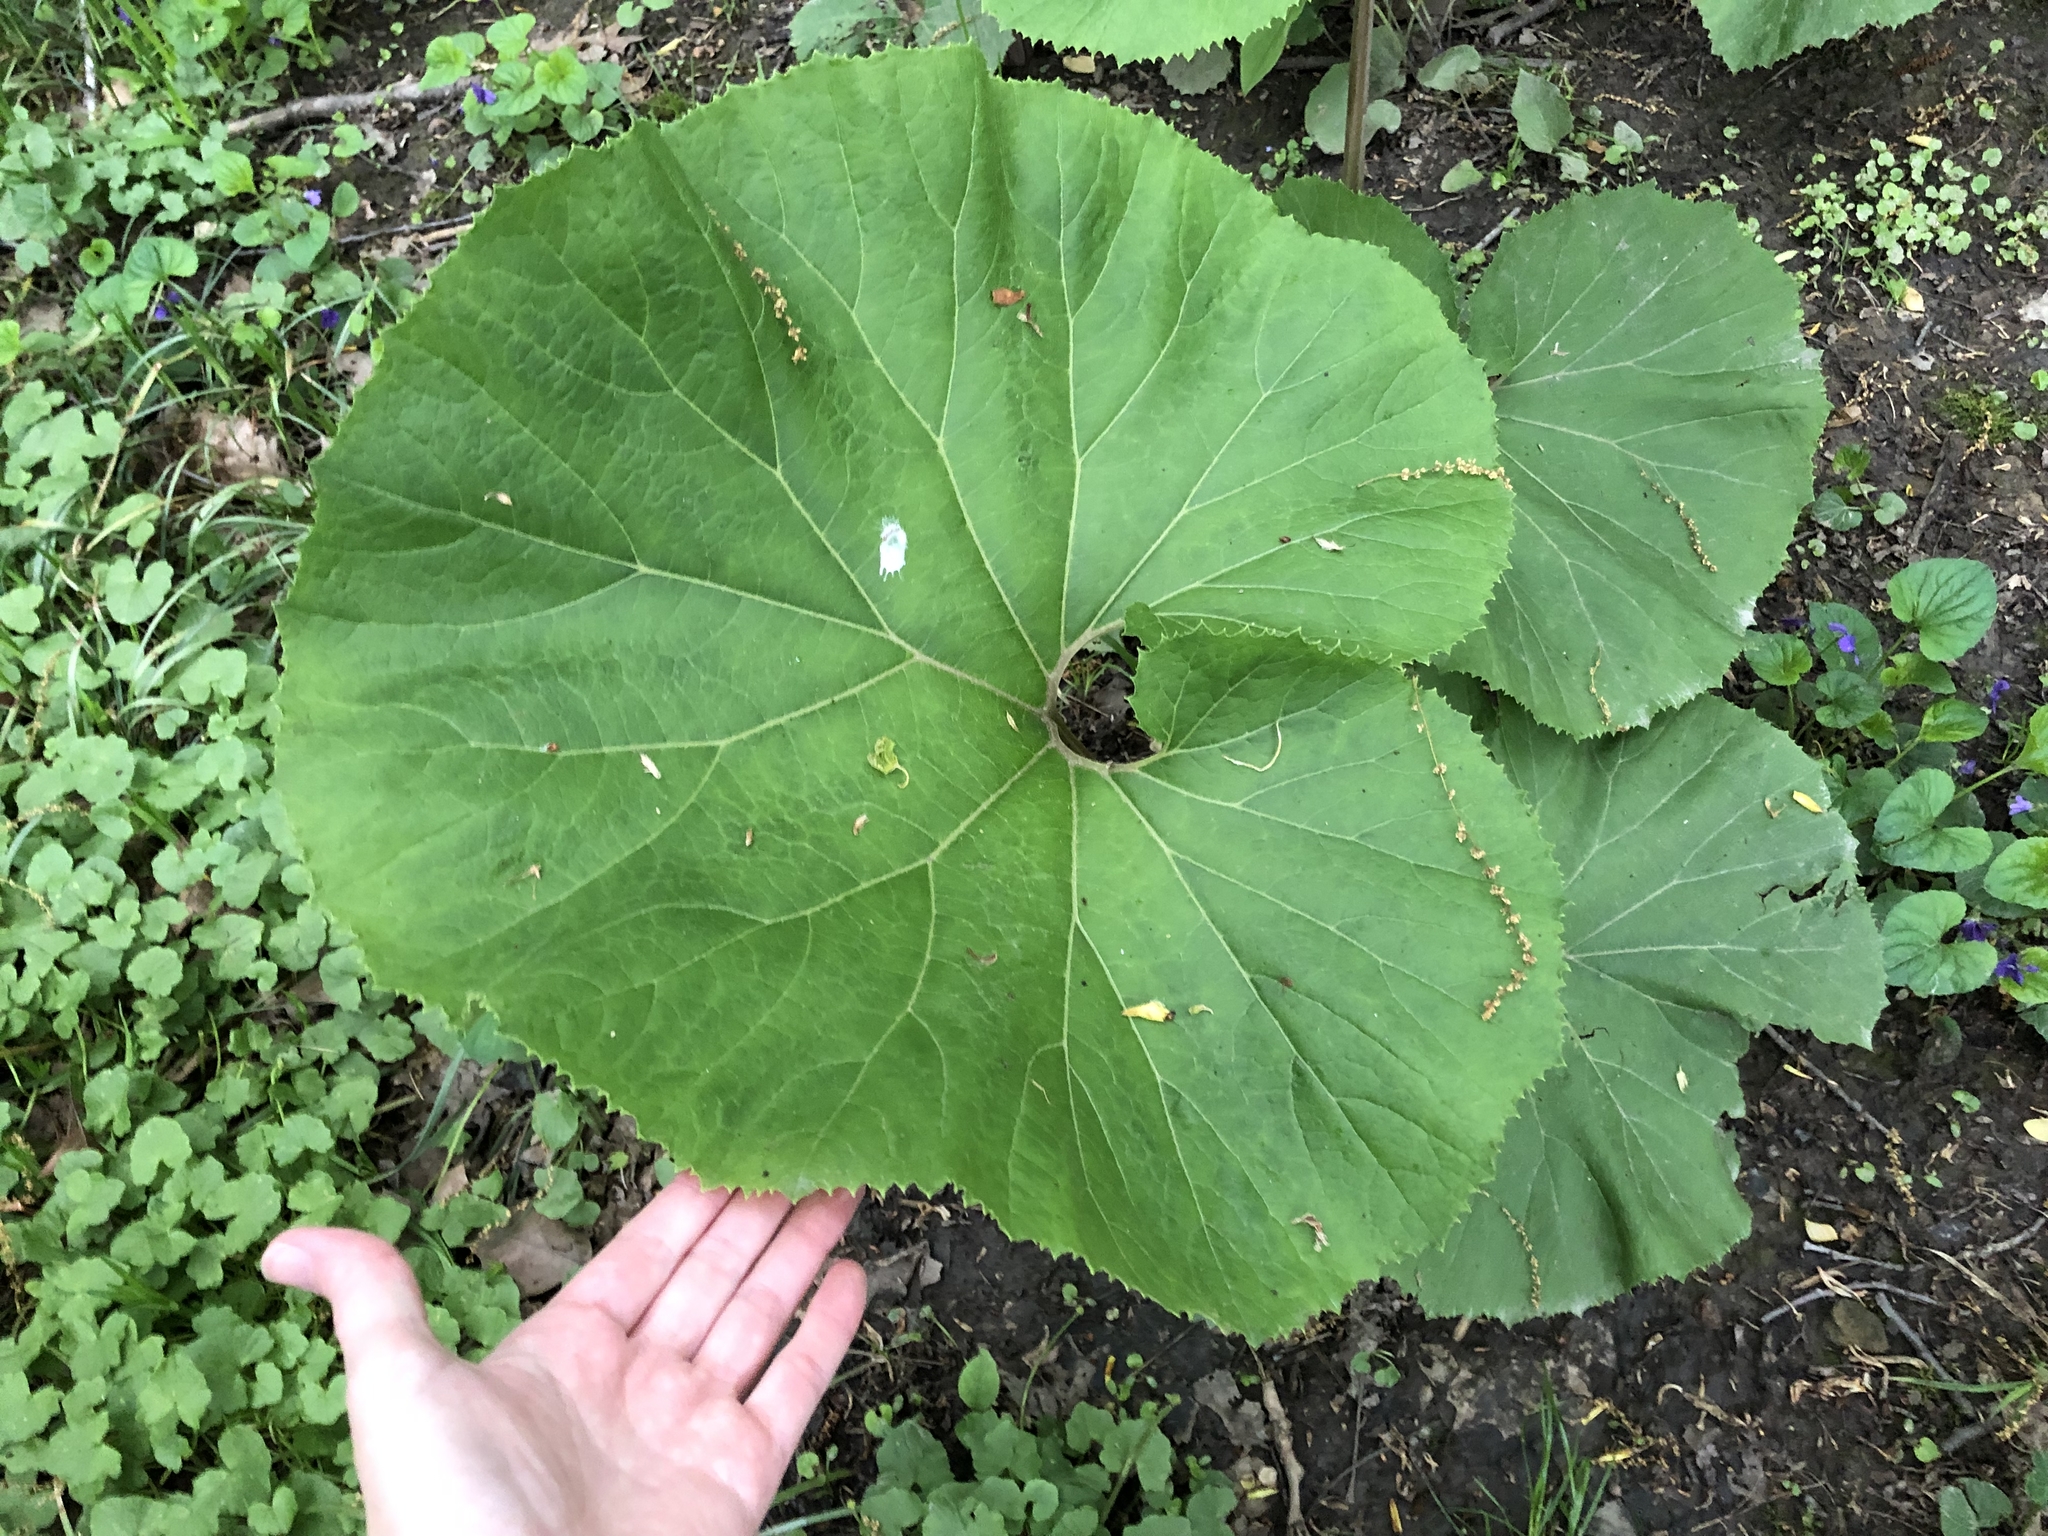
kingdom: Plantae
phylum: Tracheophyta
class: Magnoliopsida
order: Asterales
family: Asteraceae
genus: Petasites
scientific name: Petasites japonicus
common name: Giant butterbur
